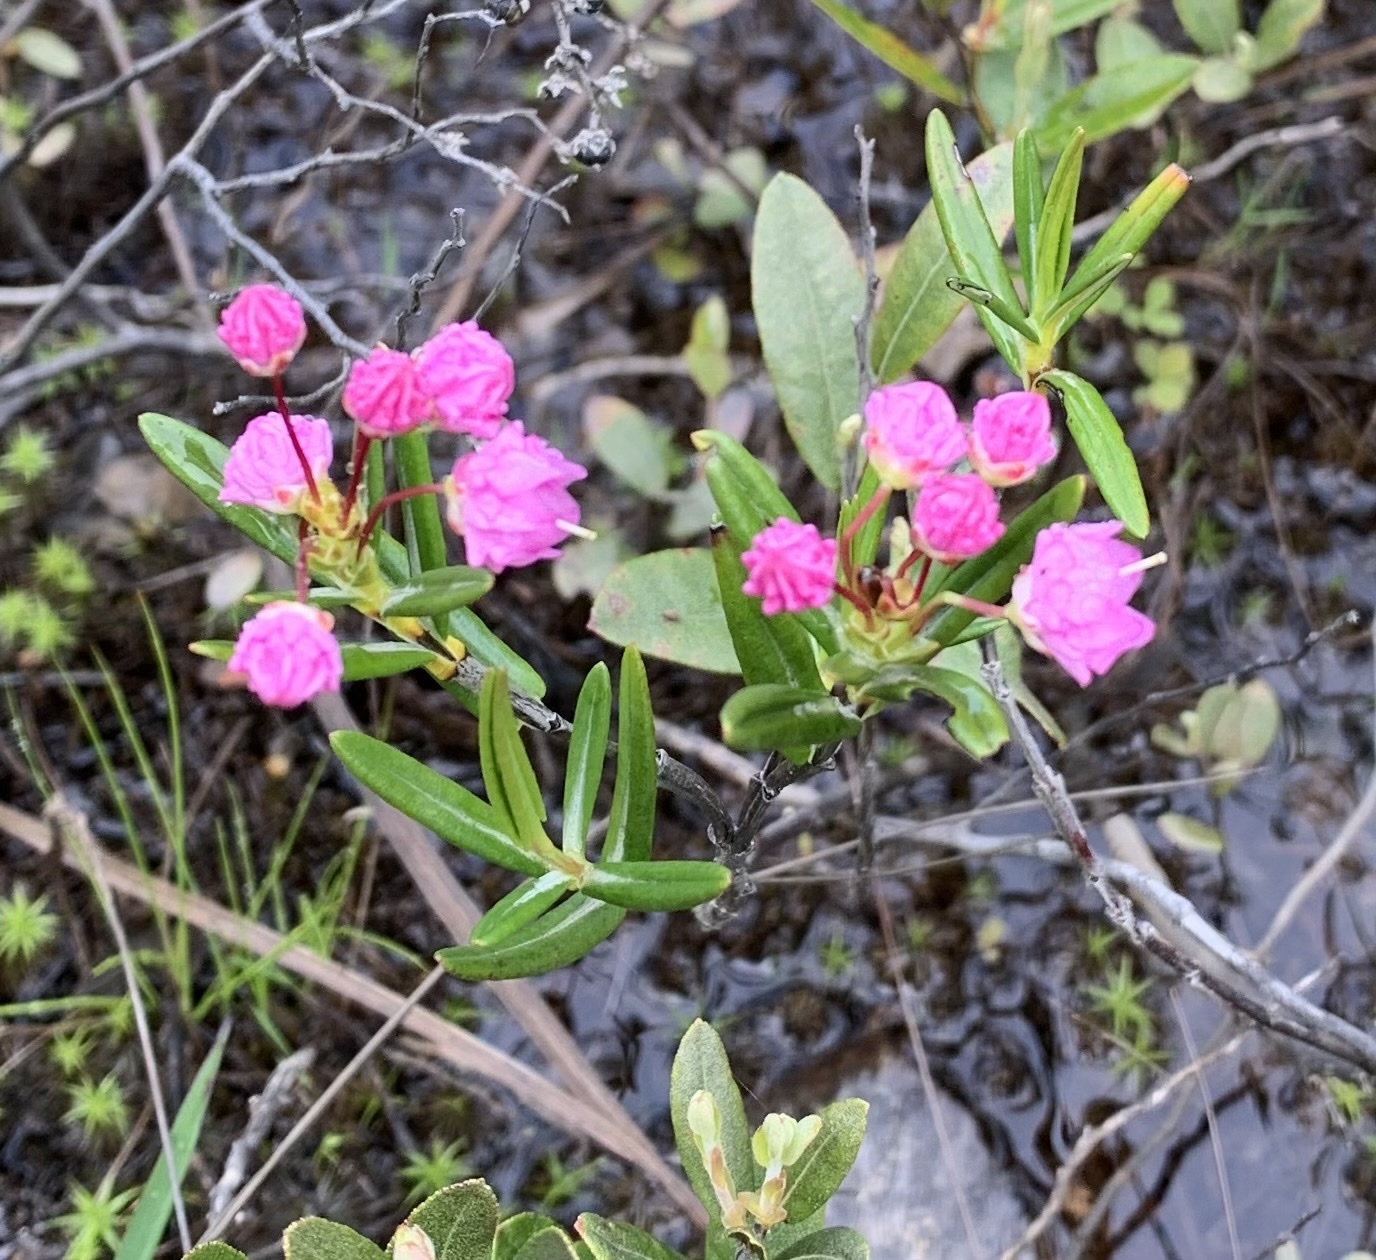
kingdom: Plantae
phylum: Tracheophyta
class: Magnoliopsida
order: Ericales
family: Ericaceae
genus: Kalmia
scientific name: Kalmia polifolia
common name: Bog-laurel
